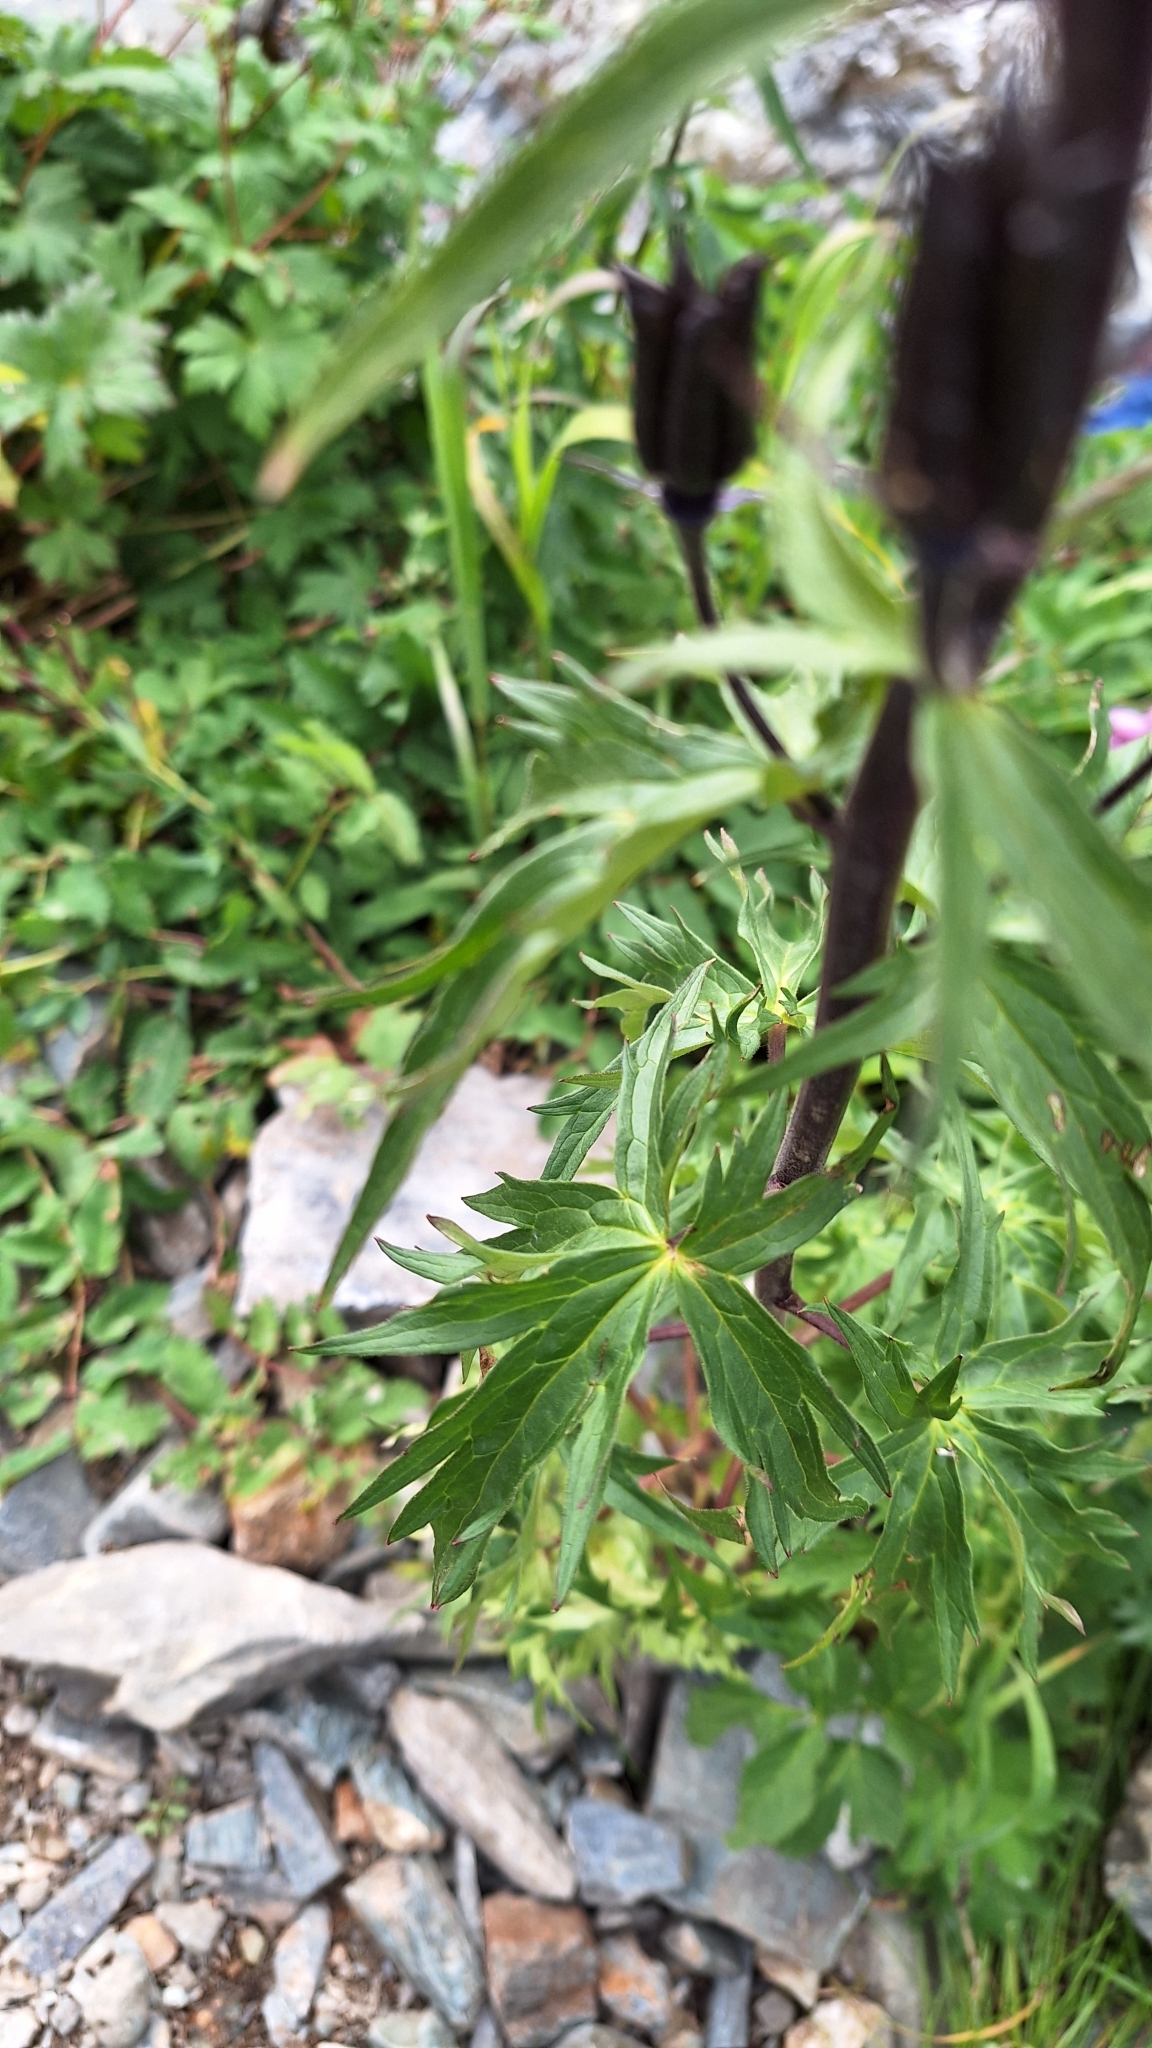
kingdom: Plantae
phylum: Tracheophyta
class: Magnoliopsida
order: Ranunculales
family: Ranunculaceae
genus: Delphinium
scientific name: Delphinium elatum
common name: Candle larkspur
